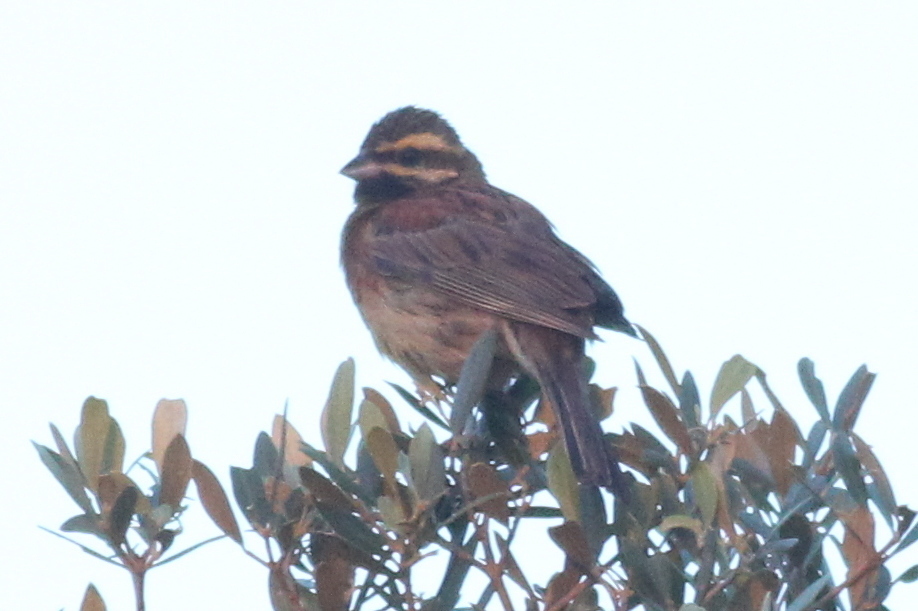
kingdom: Animalia
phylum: Chordata
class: Aves
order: Passeriformes
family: Emberizidae
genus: Emberiza
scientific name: Emberiza cirlus
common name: Cirl bunting
